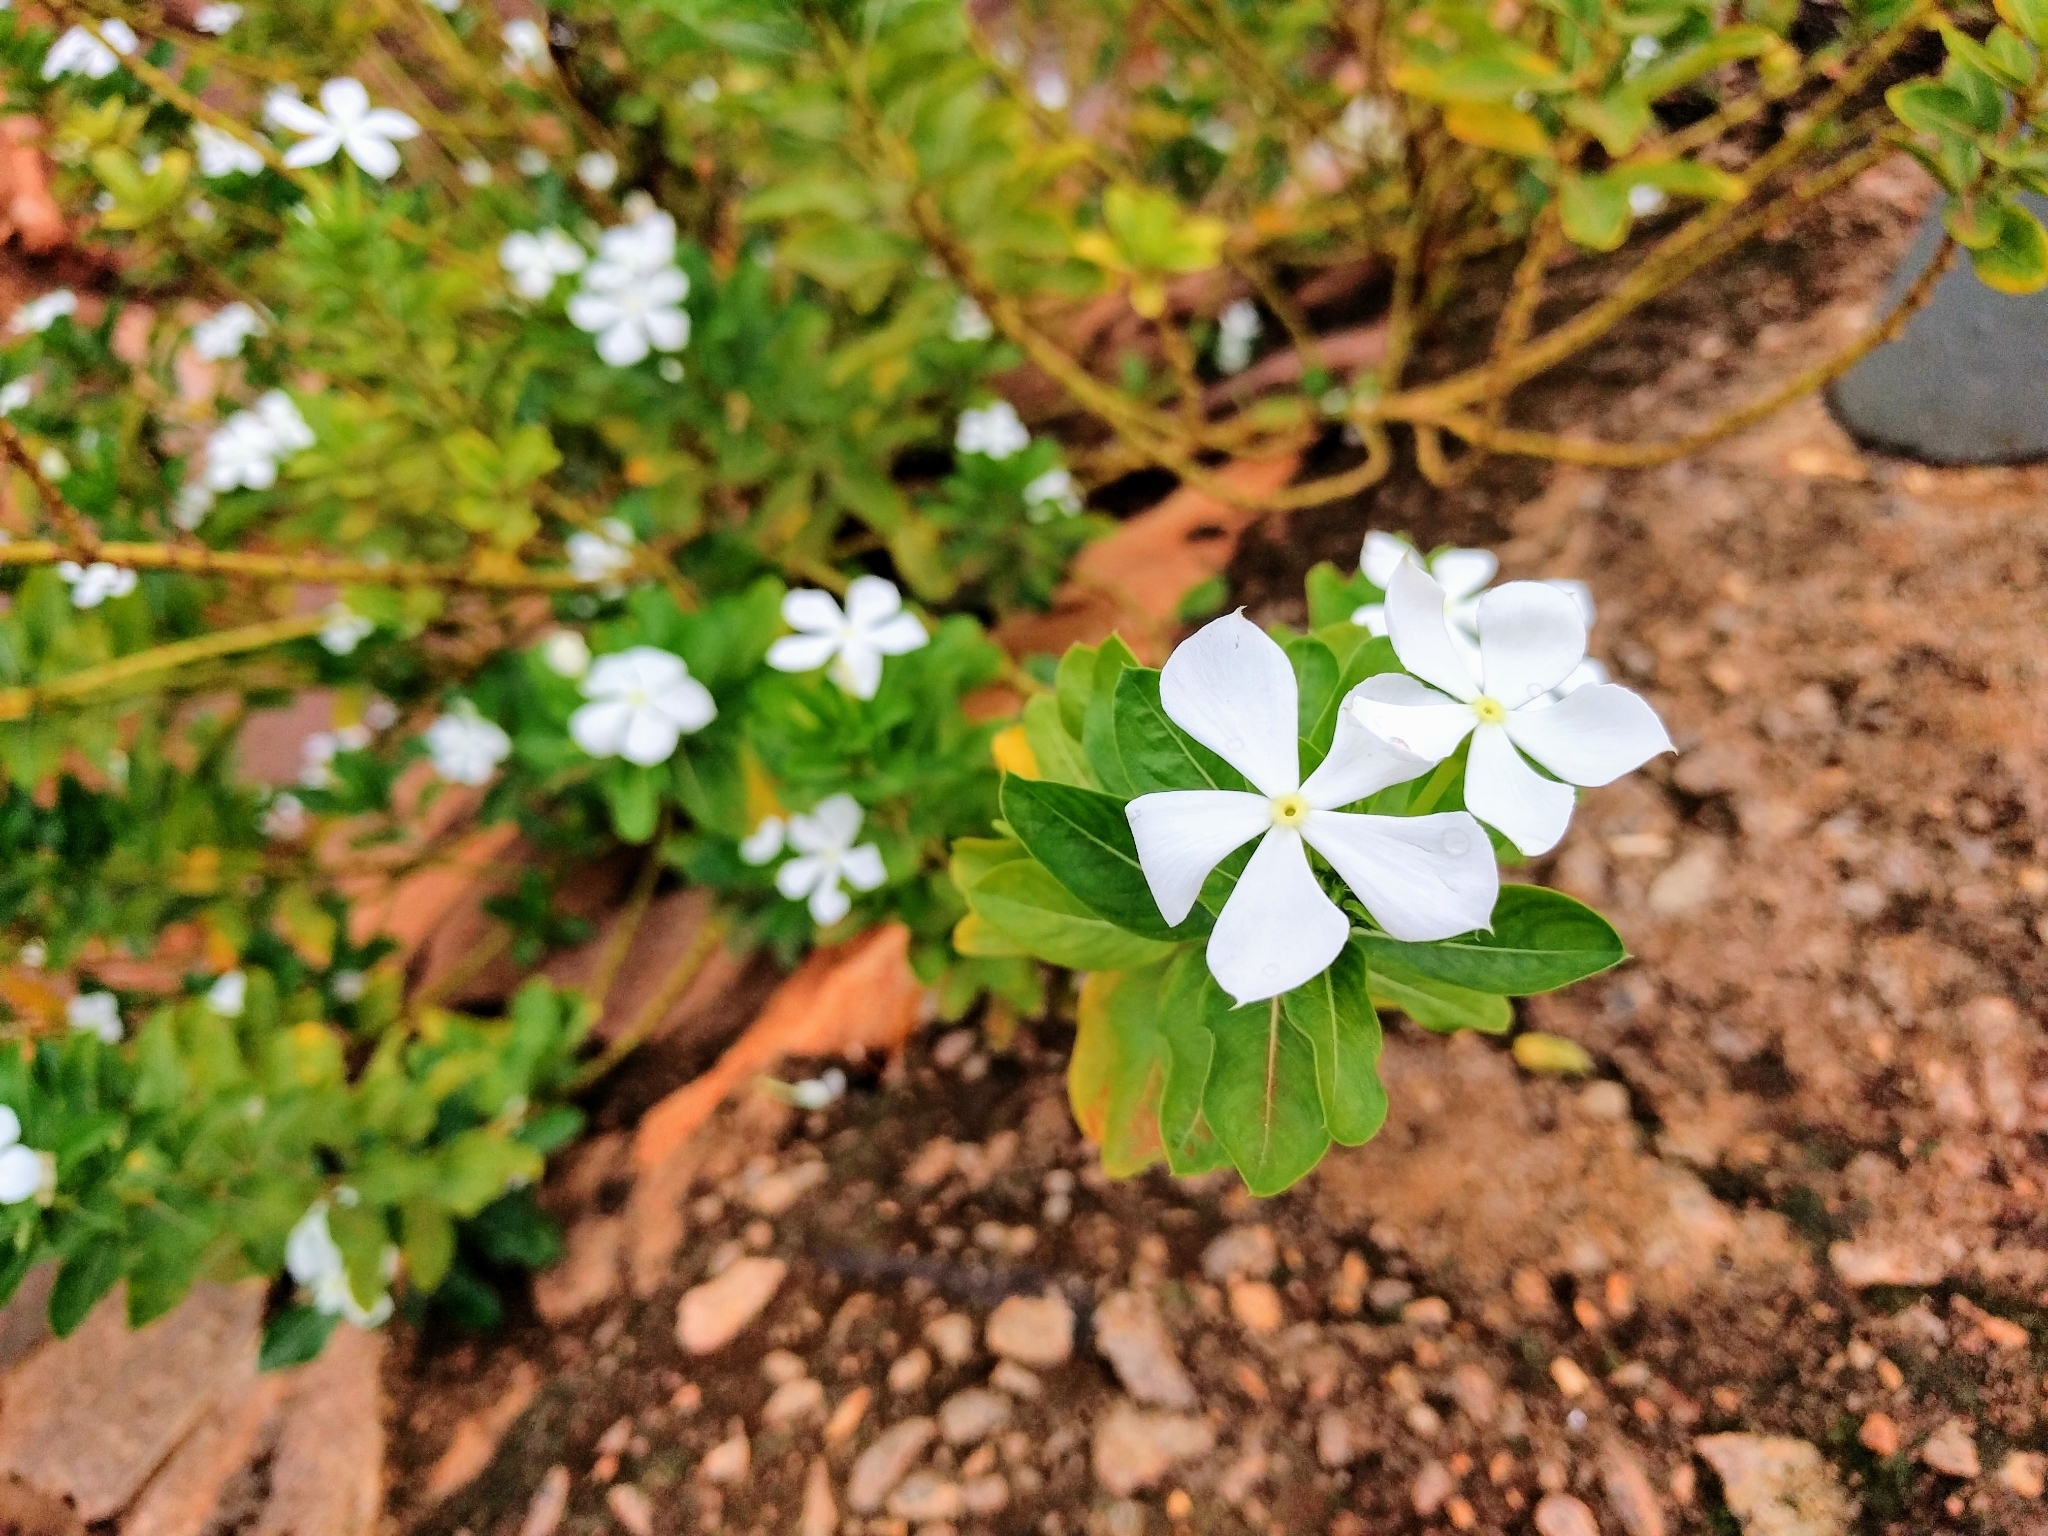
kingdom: Plantae
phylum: Tracheophyta
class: Magnoliopsida
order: Gentianales
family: Apocynaceae
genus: Catharanthus
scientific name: Catharanthus roseus
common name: Madagascar periwinkle
